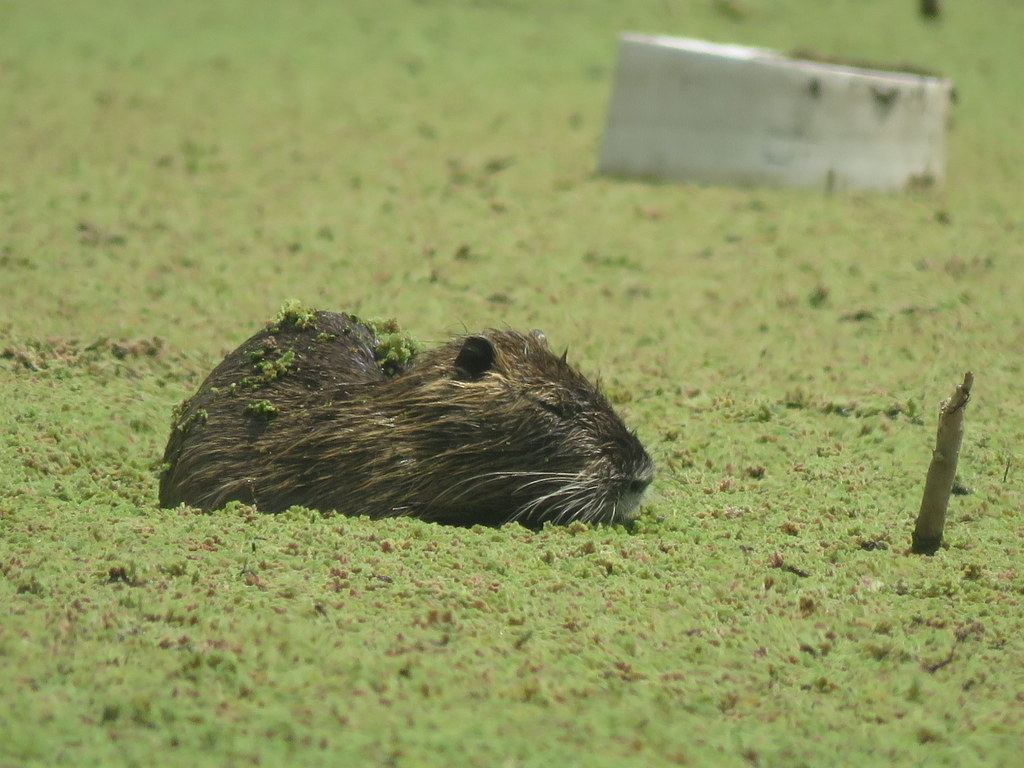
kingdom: Animalia
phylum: Chordata
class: Mammalia
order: Rodentia
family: Myocastoridae
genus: Myocastor
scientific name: Myocastor coypus
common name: Coypu
